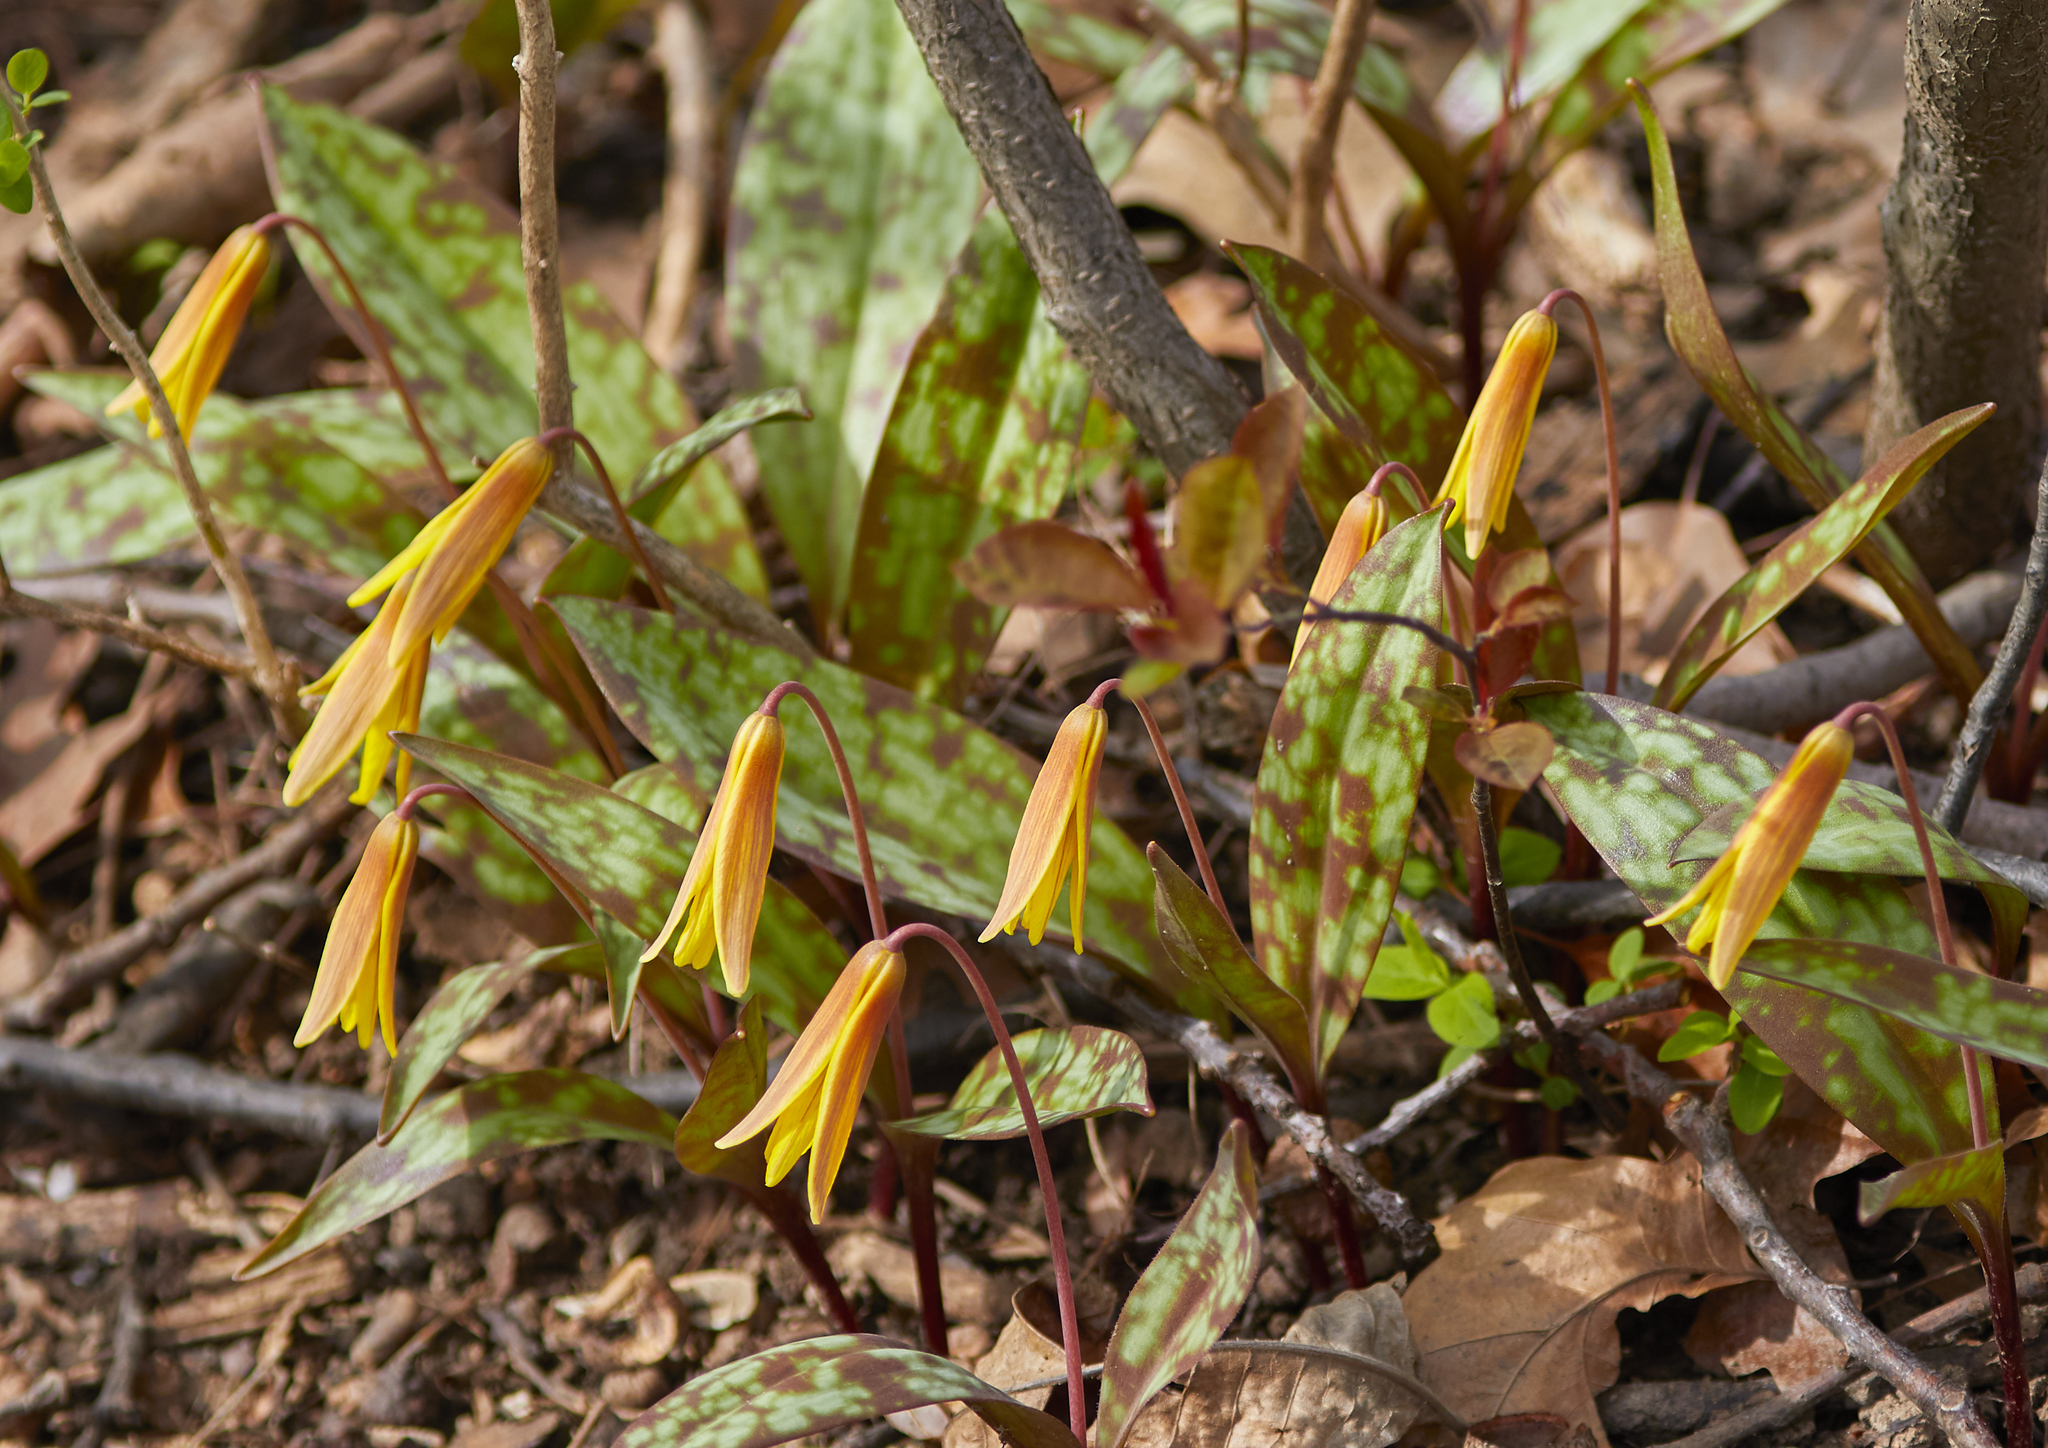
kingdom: Plantae
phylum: Tracheophyta
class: Liliopsida
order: Liliales
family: Liliaceae
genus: Erythronium
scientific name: Erythronium americanum
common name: Yellow adder's-tongue
